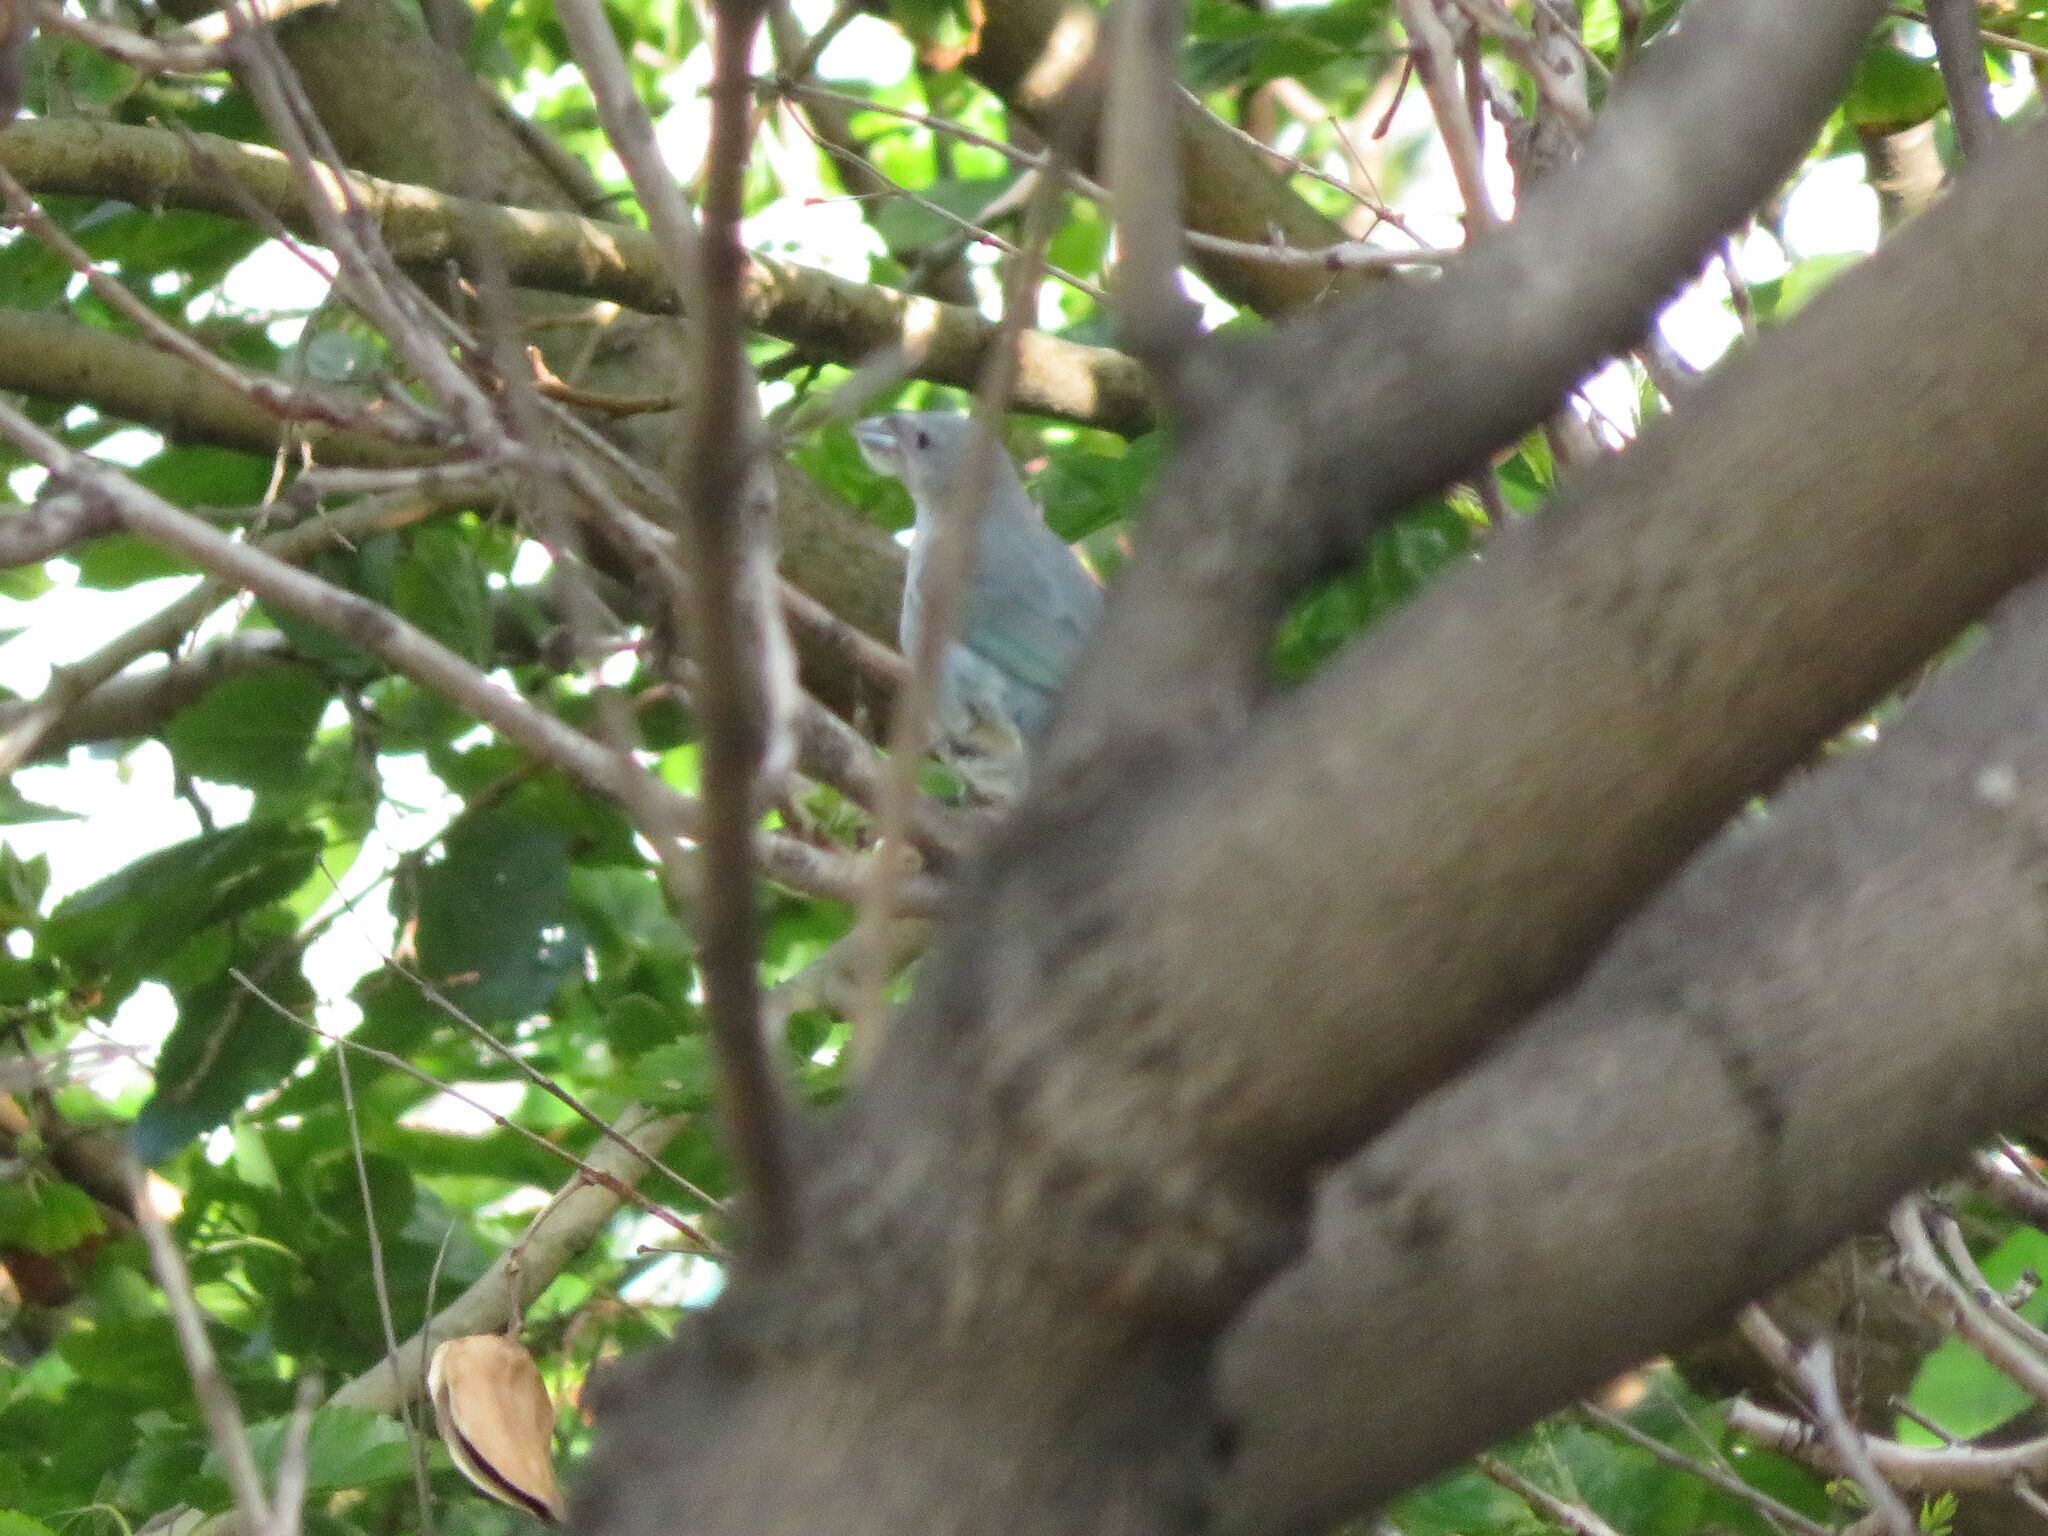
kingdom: Animalia
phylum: Chordata
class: Aves
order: Passeriformes
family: Thraupidae
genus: Thraupis
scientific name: Thraupis sayaca
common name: Sayaca tanager
